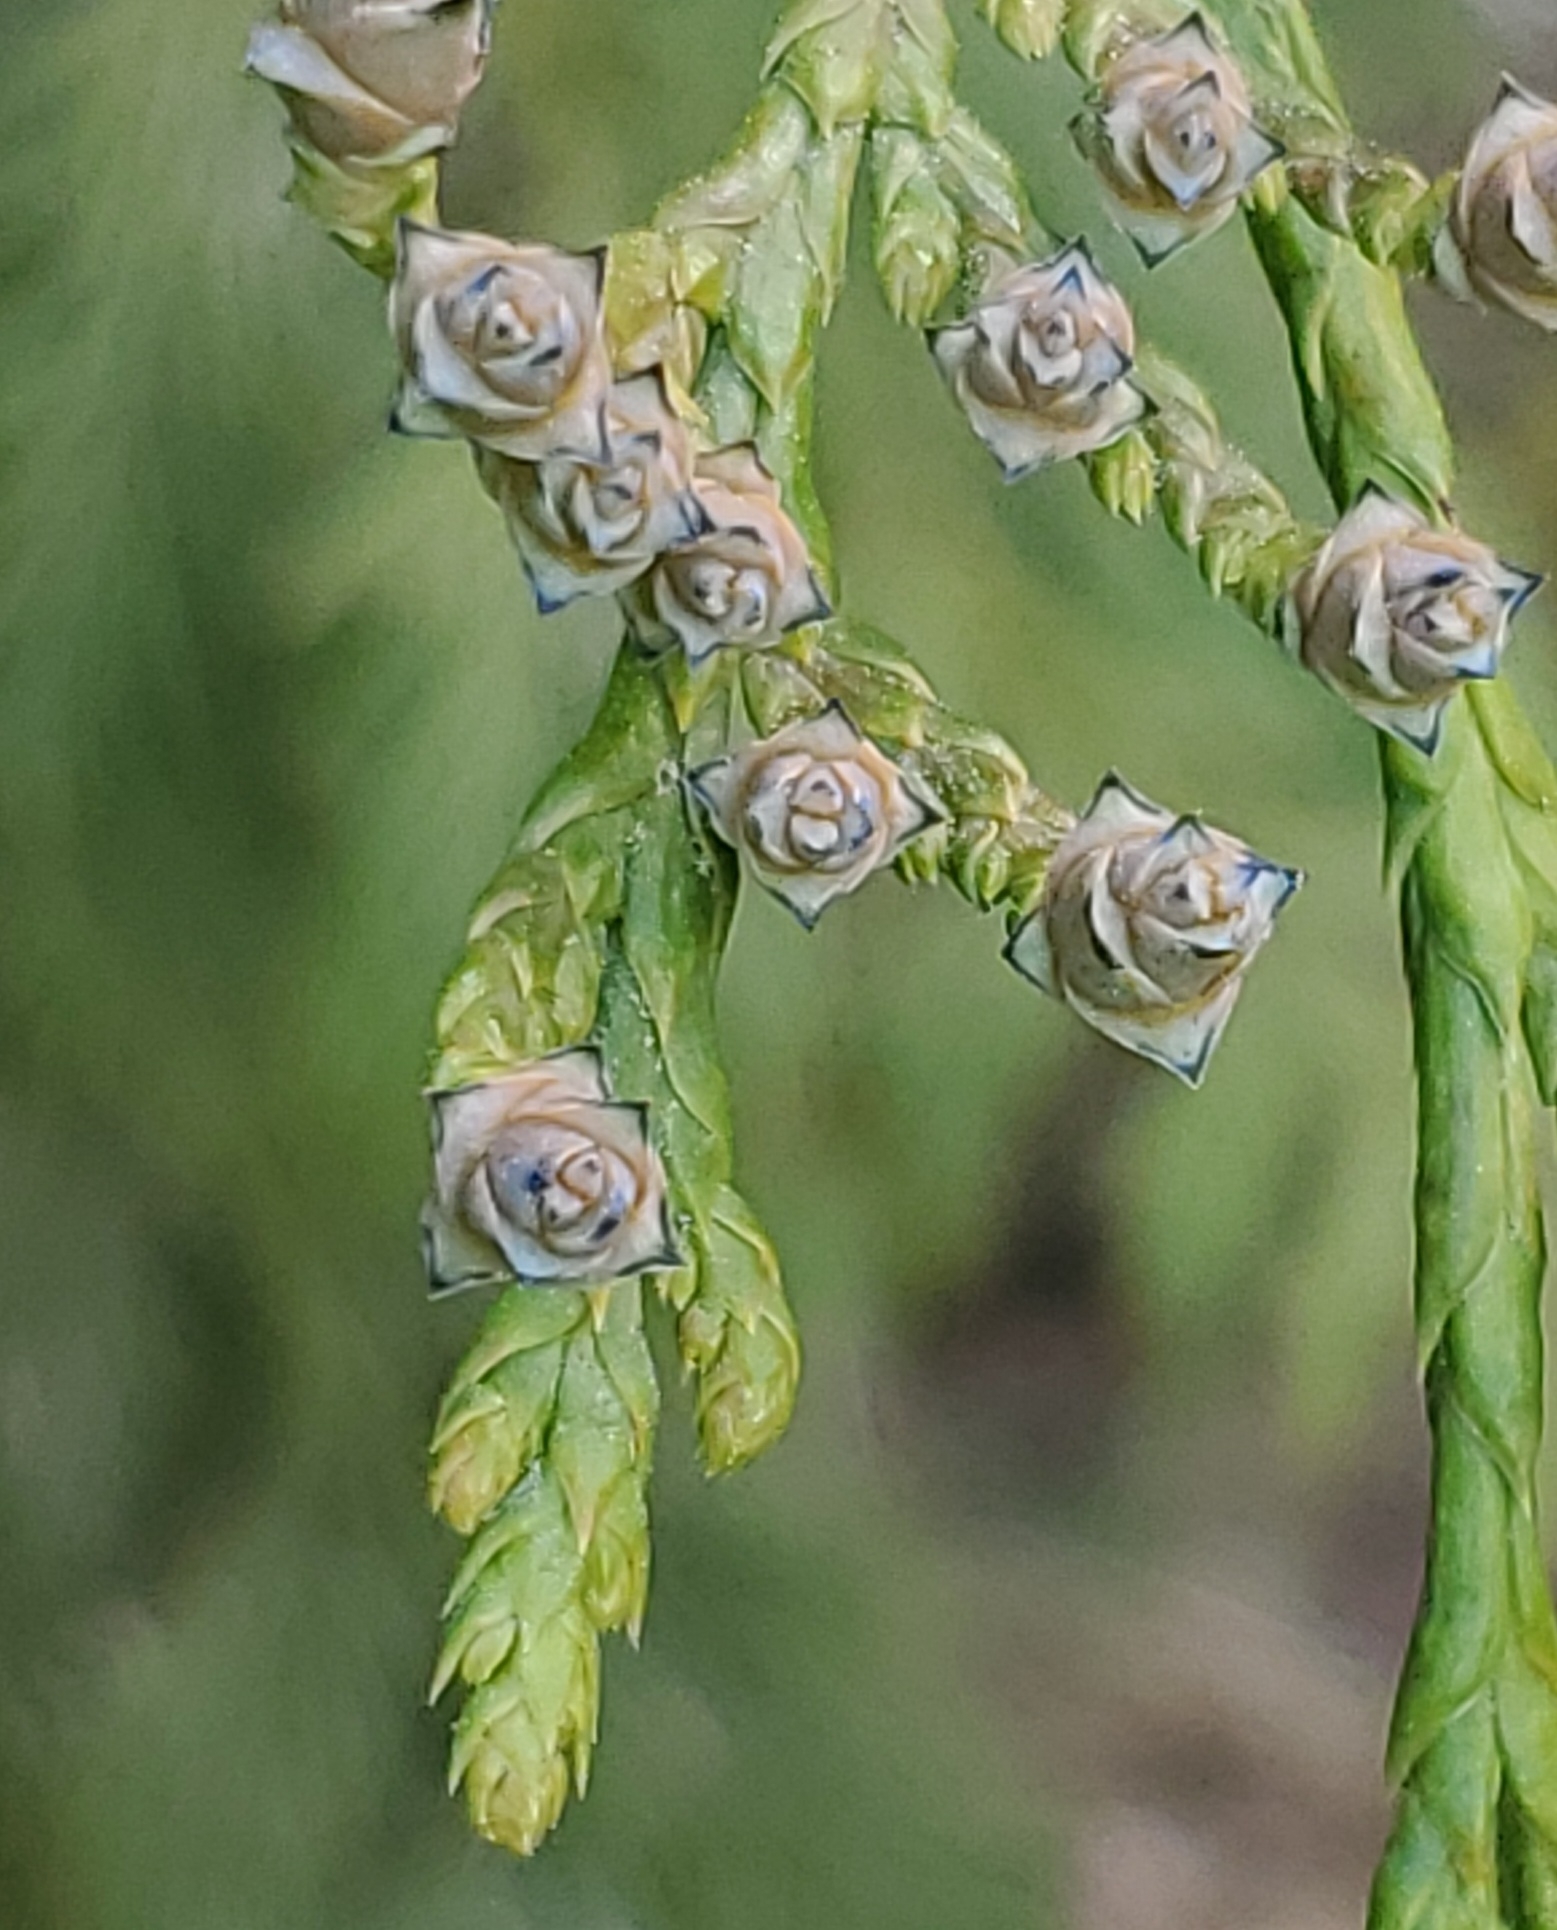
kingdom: Plantae
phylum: Tracheophyta
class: Pinopsida
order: Pinales
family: Cupressaceae
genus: Thuja
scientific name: Thuja plicata
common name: Western red-cedar
